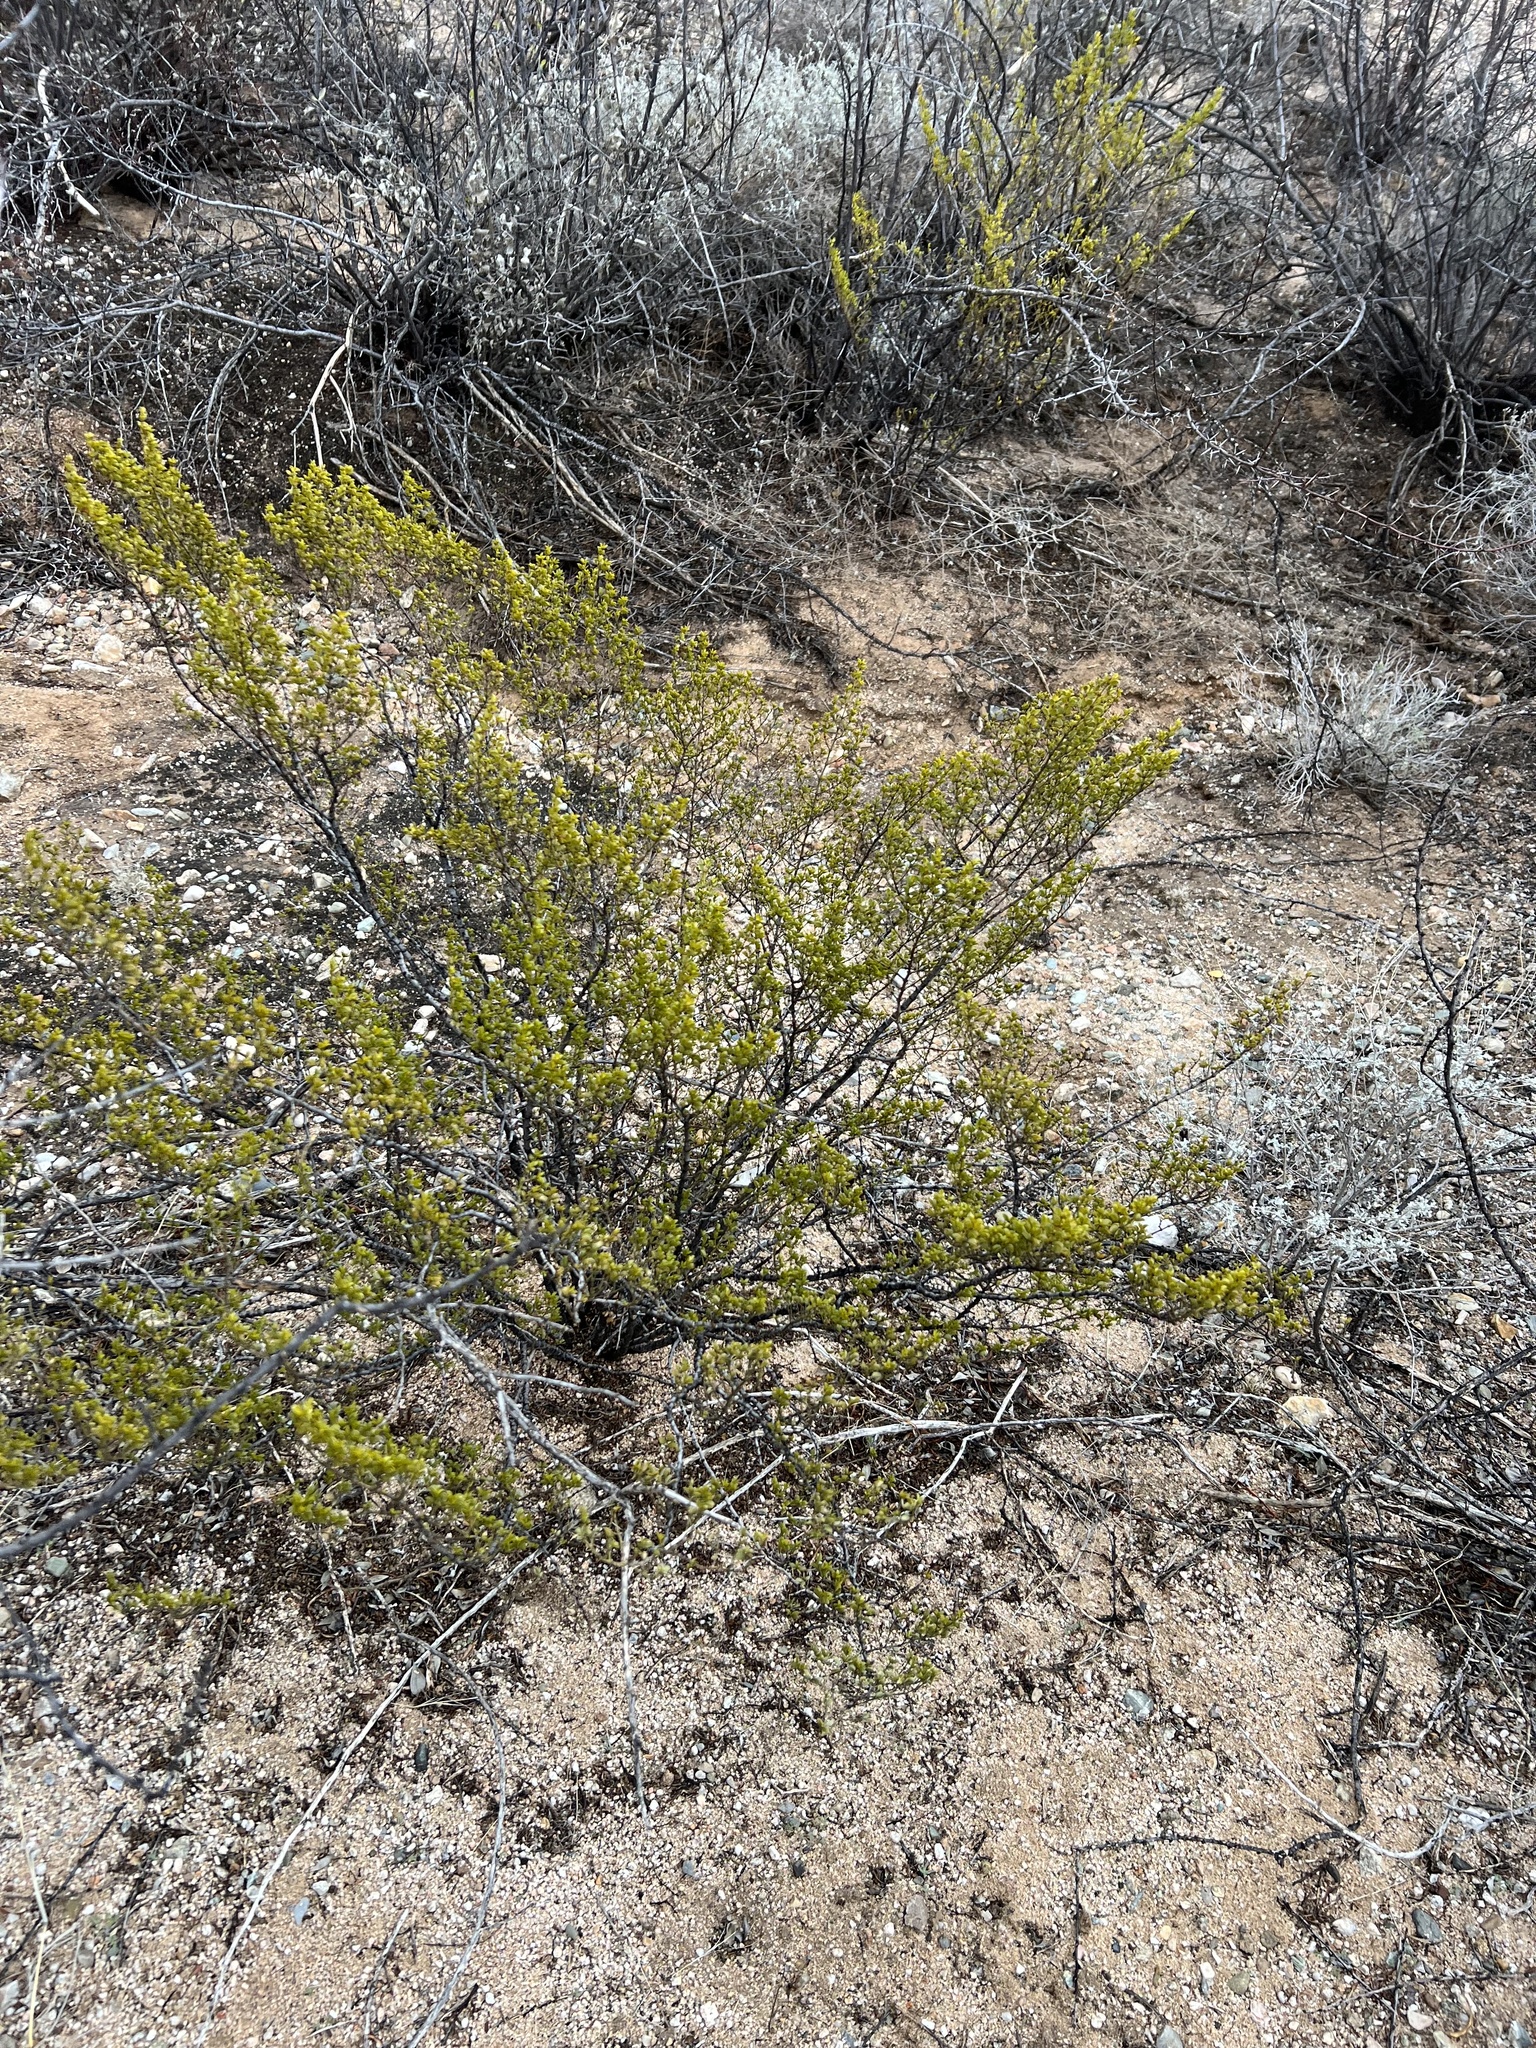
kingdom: Plantae
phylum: Tracheophyta
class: Magnoliopsida
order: Zygophyllales
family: Zygophyllaceae
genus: Larrea
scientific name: Larrea tridentata
